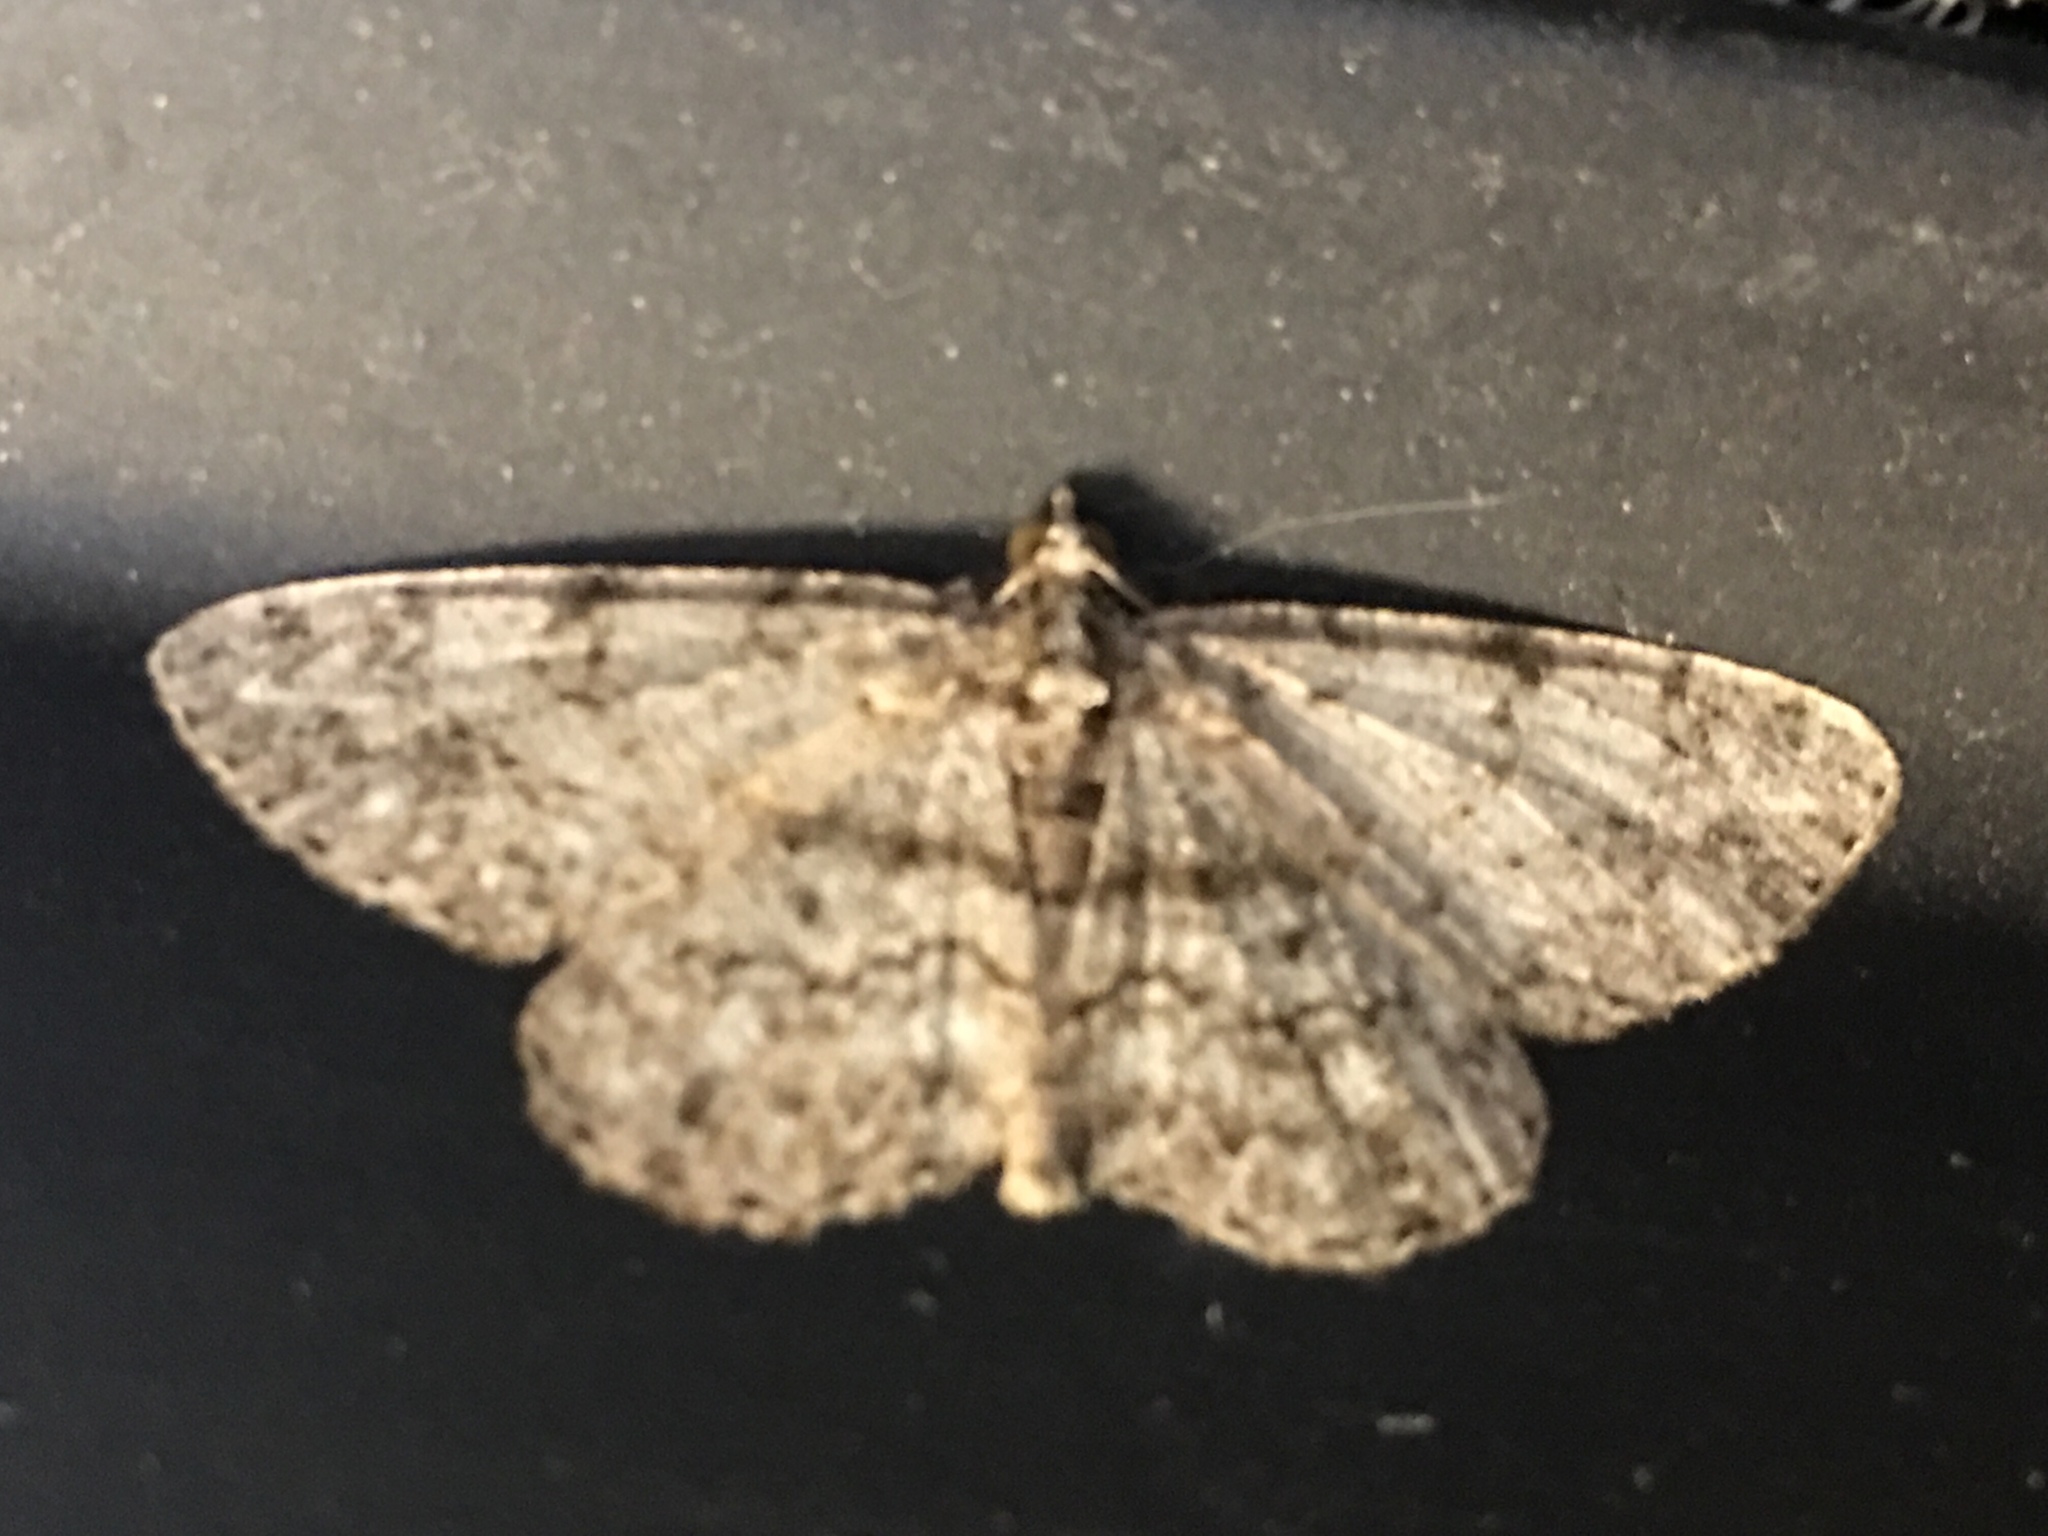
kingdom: Animalia
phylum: Arthropoda
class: Insecta
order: Lepidoptera
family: Geometridae
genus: Protoboarmia
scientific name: Protoboarmia porcelaria
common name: Porcelain gray
